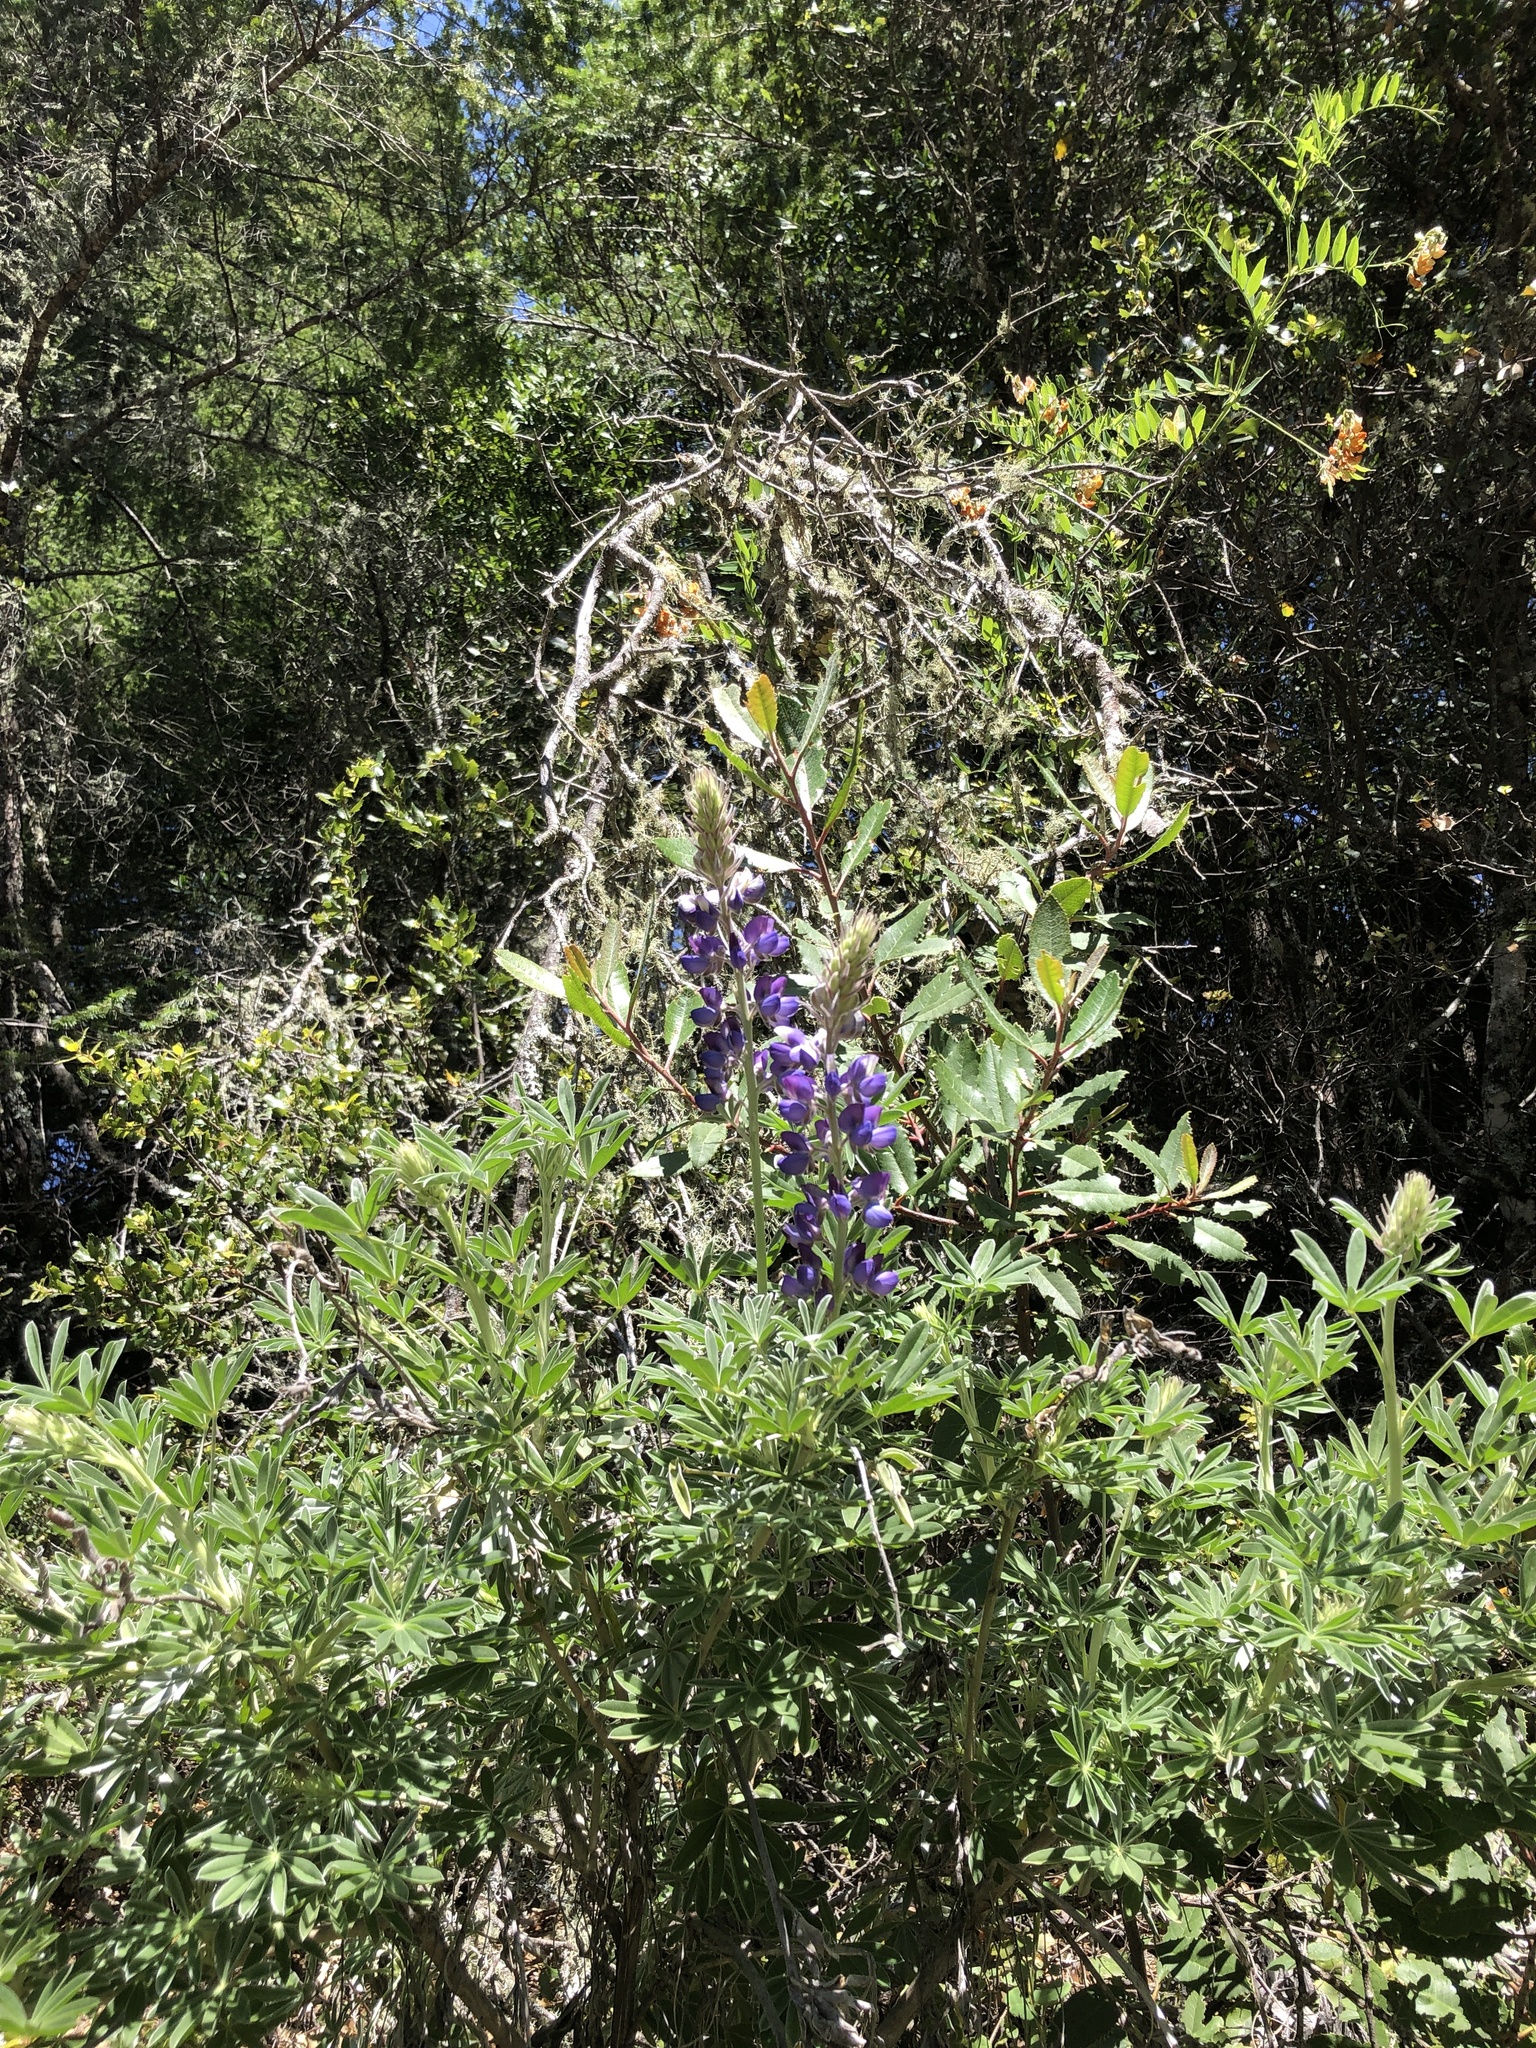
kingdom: Plantae
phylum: Tracheophyta
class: Magnoliopsida
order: Fabales
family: Fabaceae
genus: Lupinus
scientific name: Lupinus albifrons
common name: Foothill lupine
